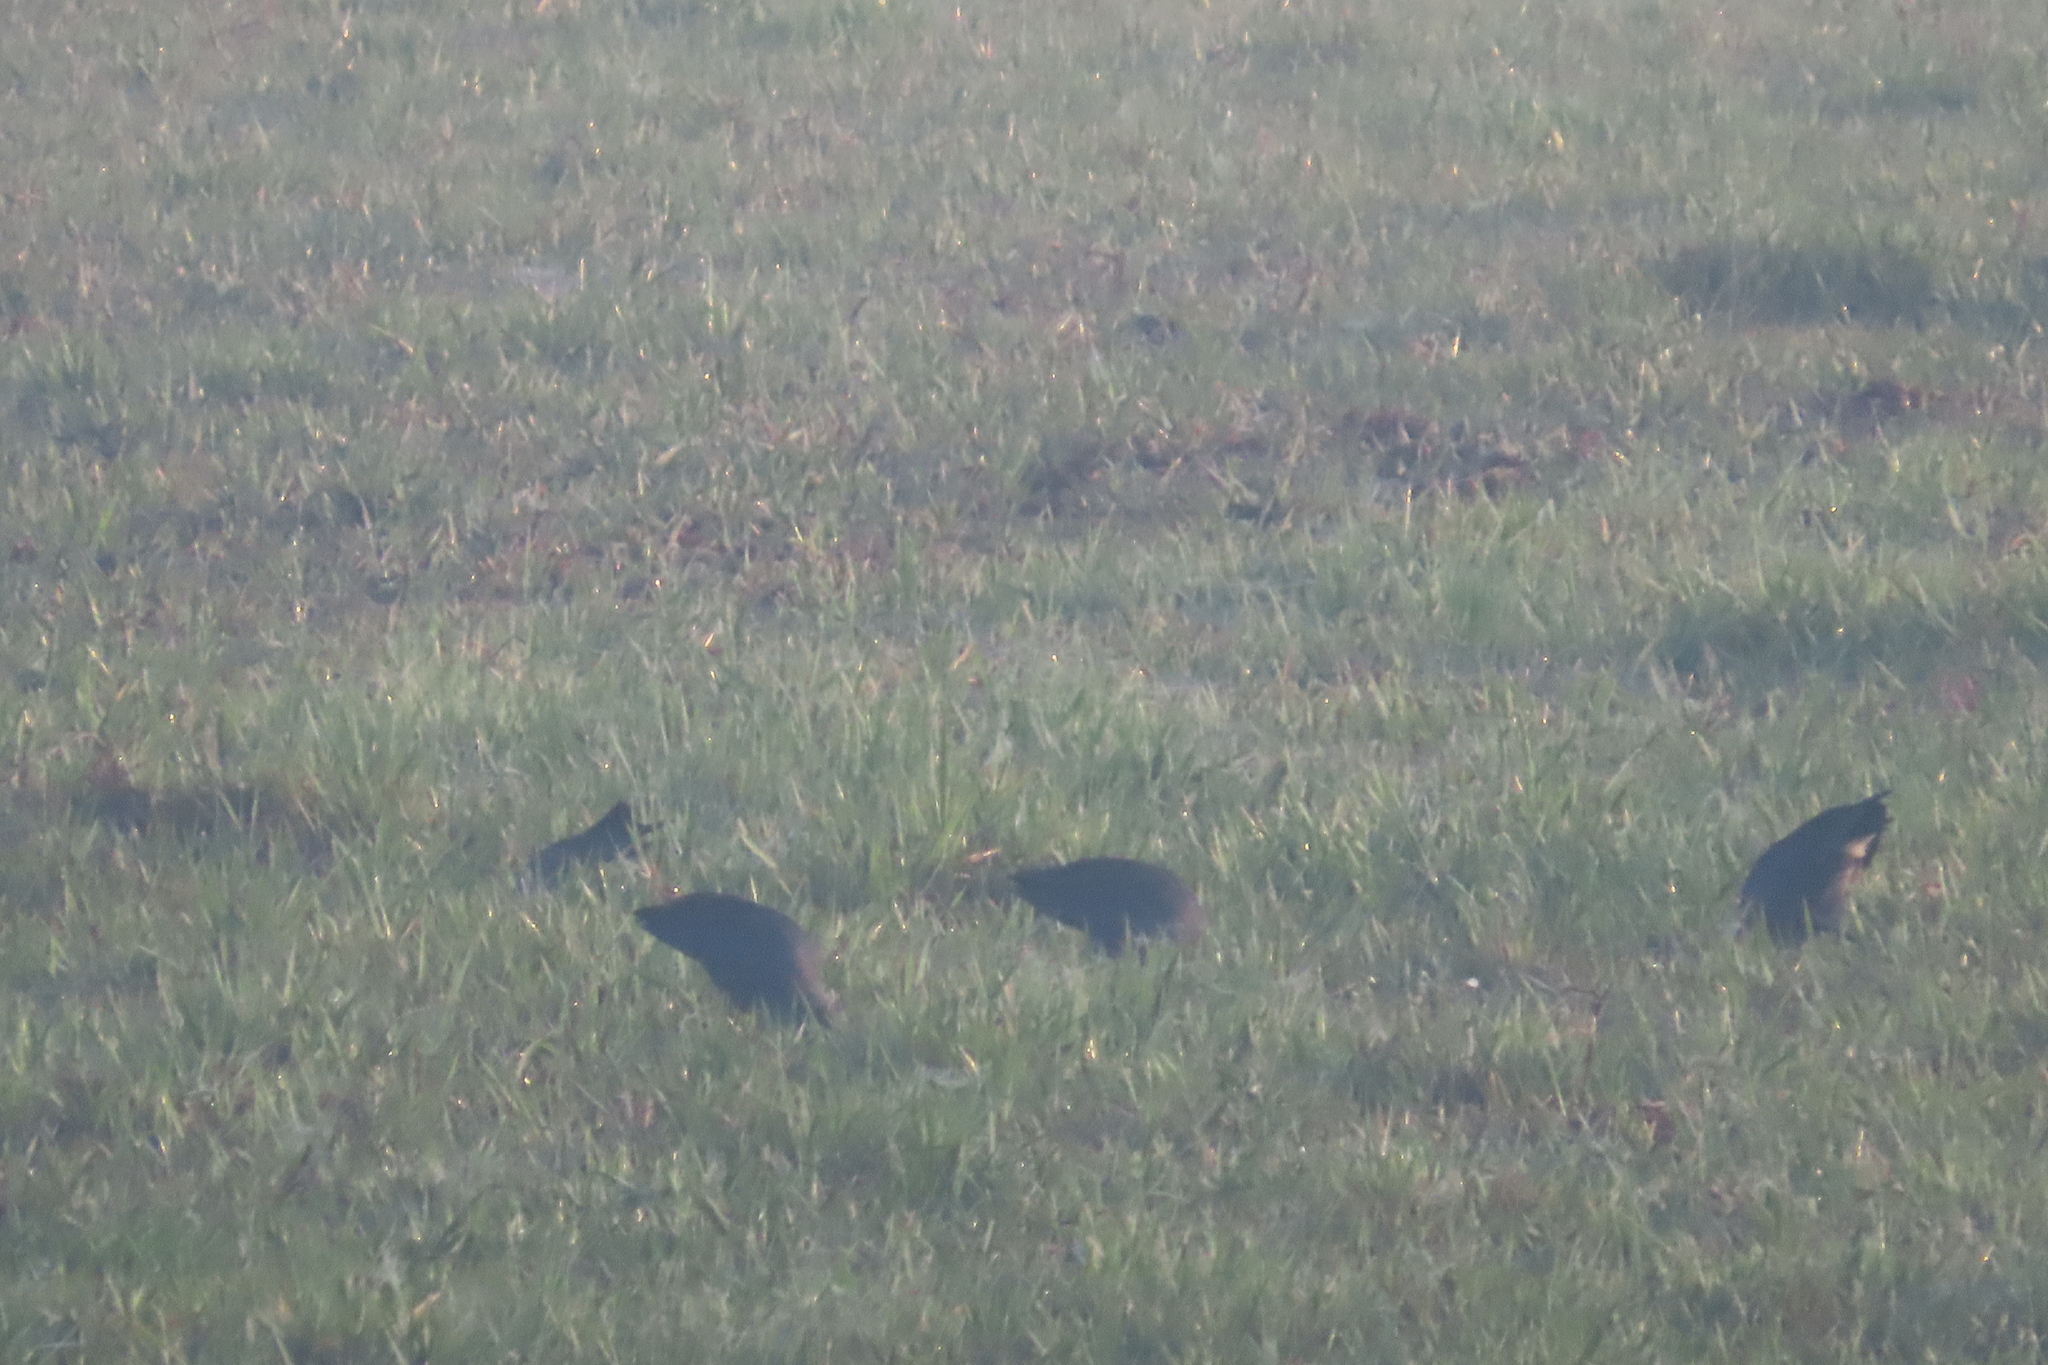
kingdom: Animalia
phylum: Chordata
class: Aves
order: Gruiformes
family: Rallidae
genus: Porphyrio
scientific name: Porphyrio porphyrio
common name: Purple swamphen
